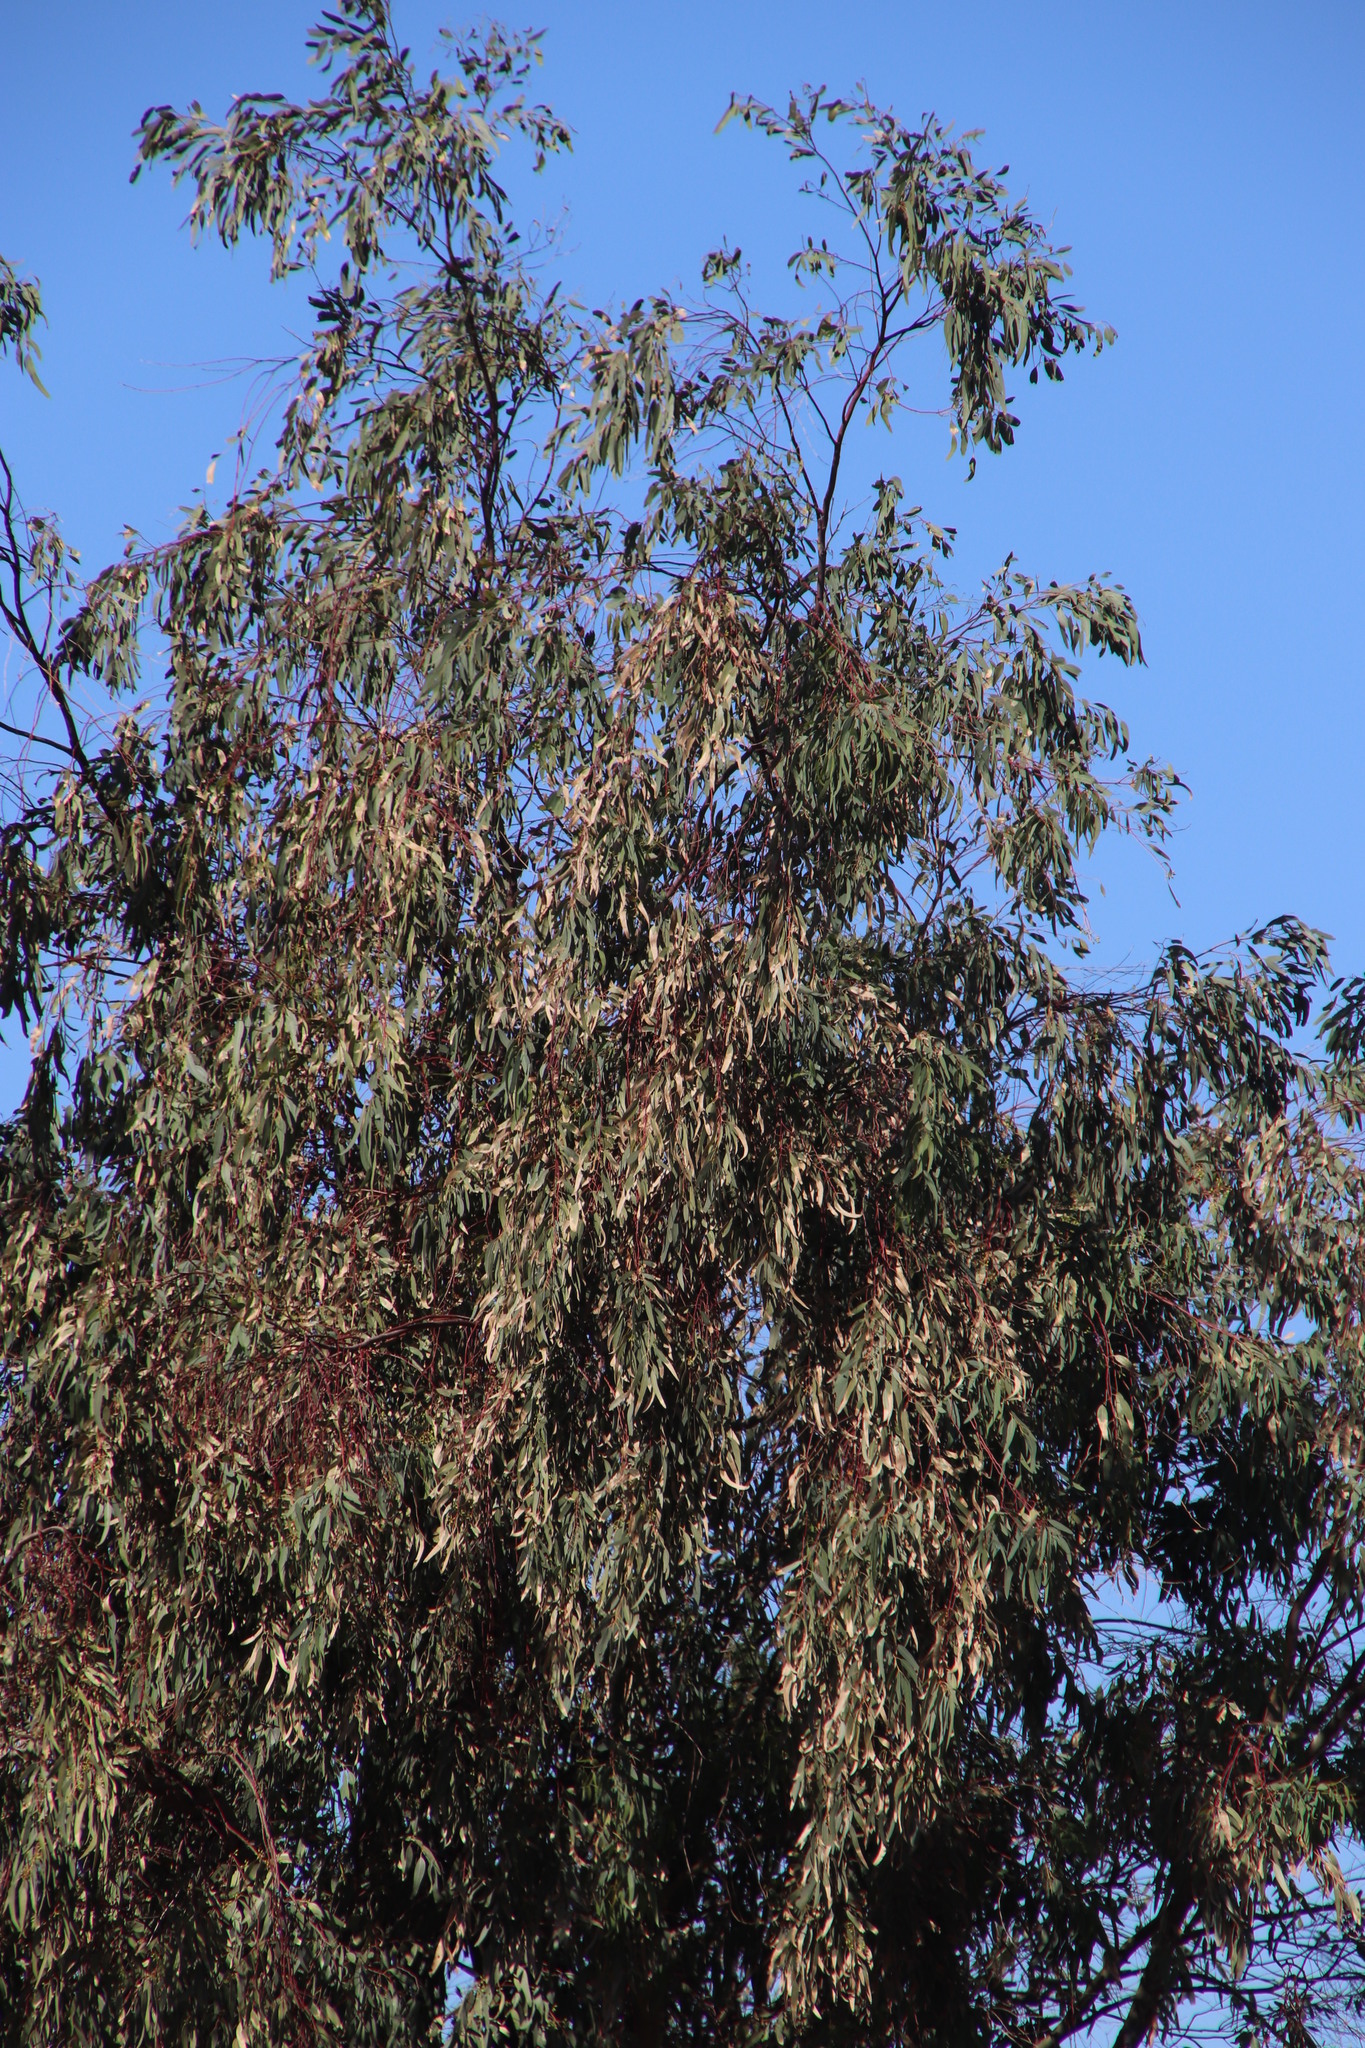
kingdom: Plantae
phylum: Tracheophyta
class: Magnoliopsida
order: Myrtales
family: Myrtaceae
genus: Eucalyptus
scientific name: Eucalyptus camaldulensis
